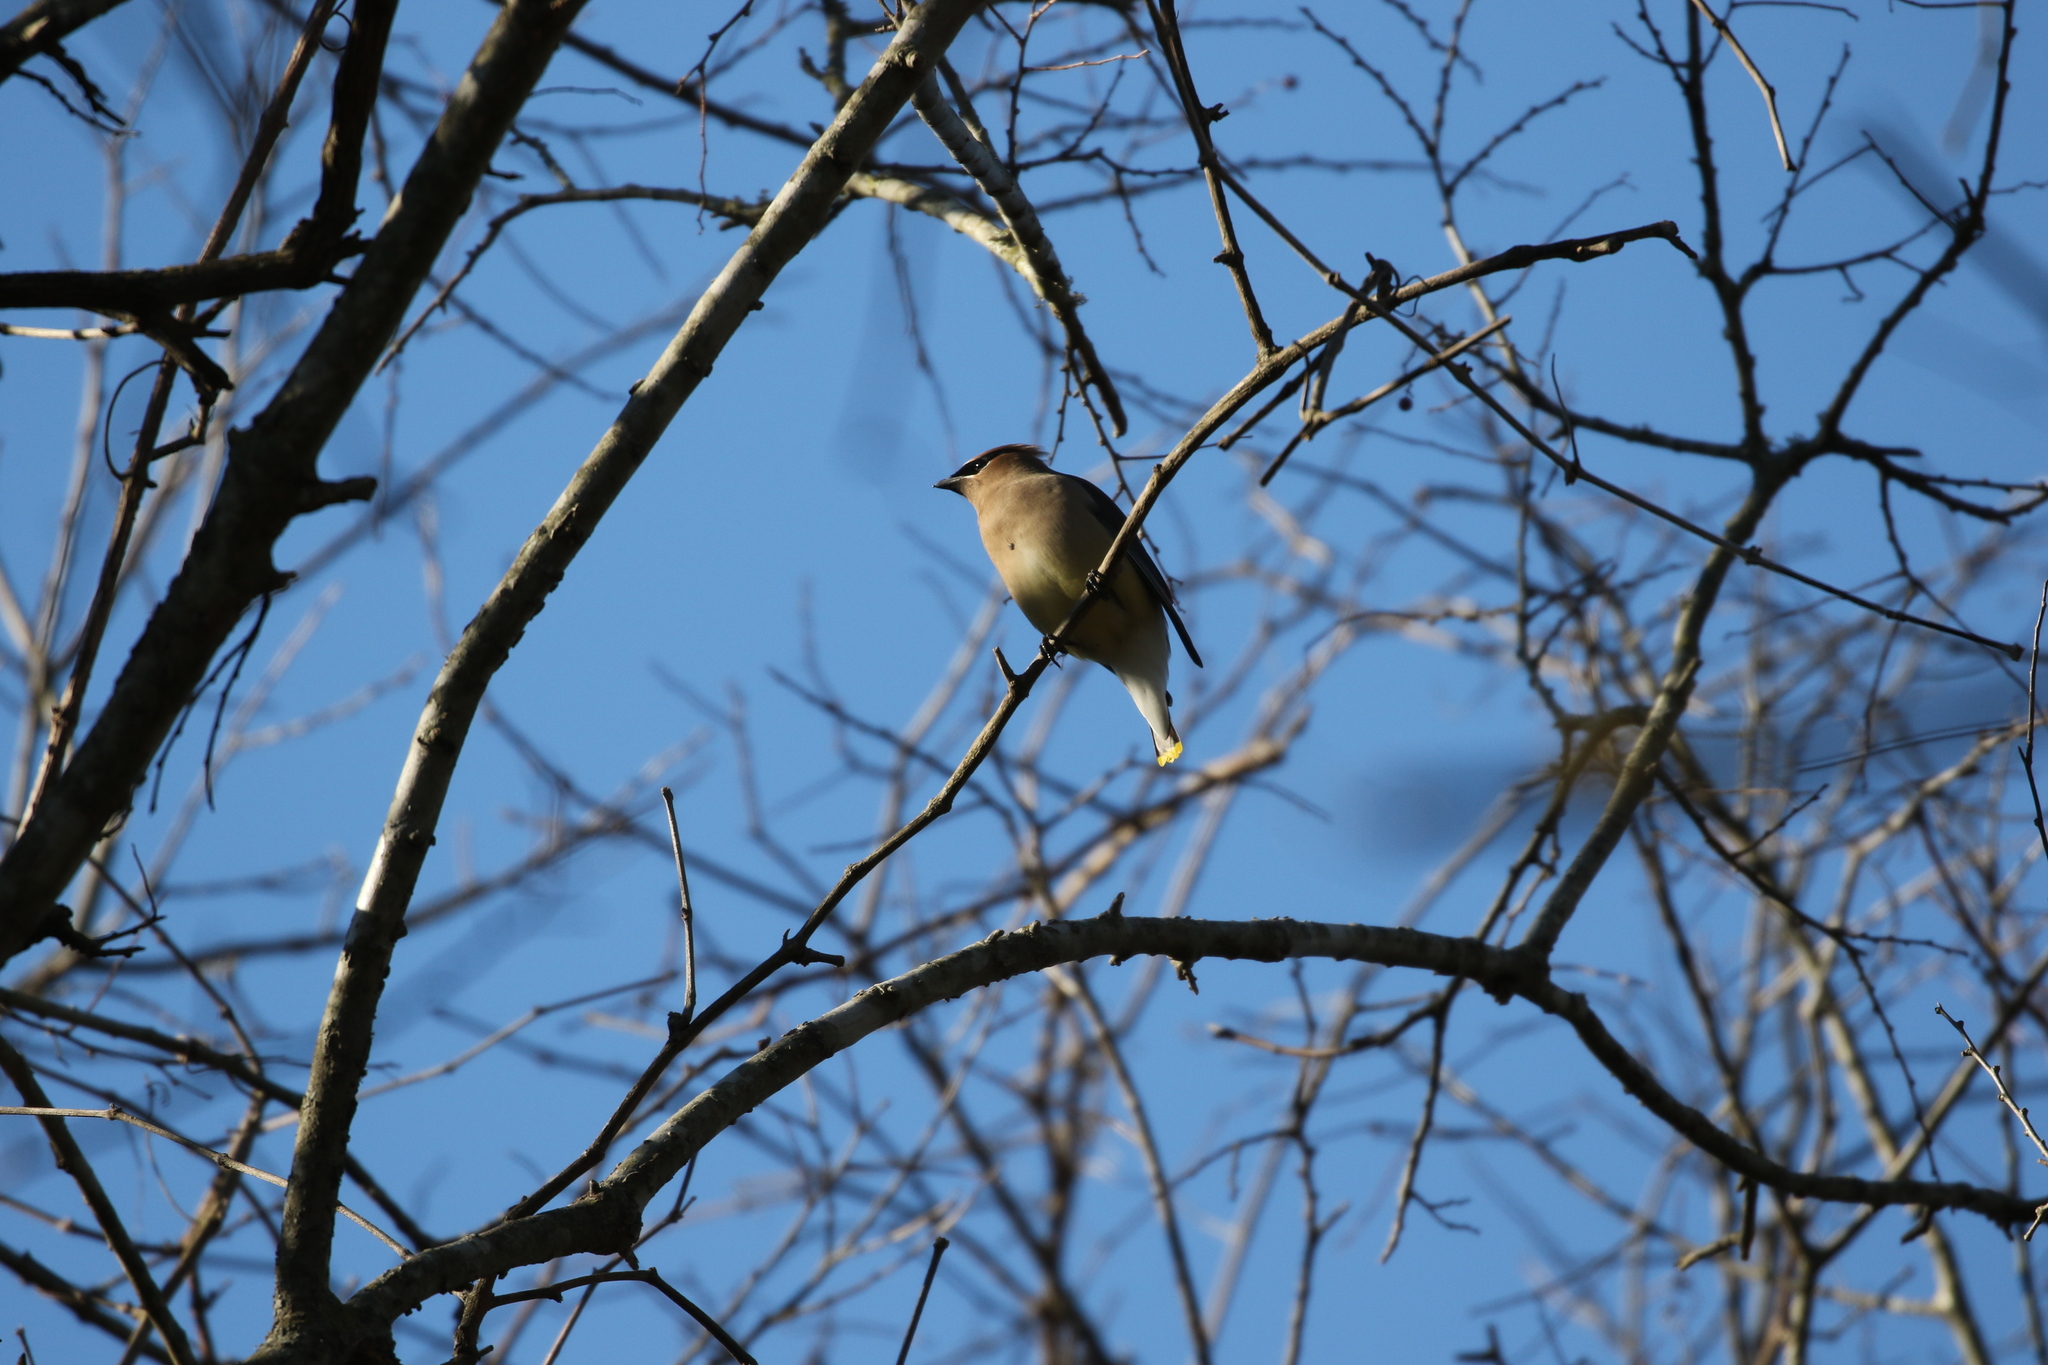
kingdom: Animalia
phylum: Chordata
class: Aves
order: Passeriformes
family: Bombycillidae
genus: Bombycilla
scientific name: Bombycilla cedrorum
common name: Cedar waxwing
